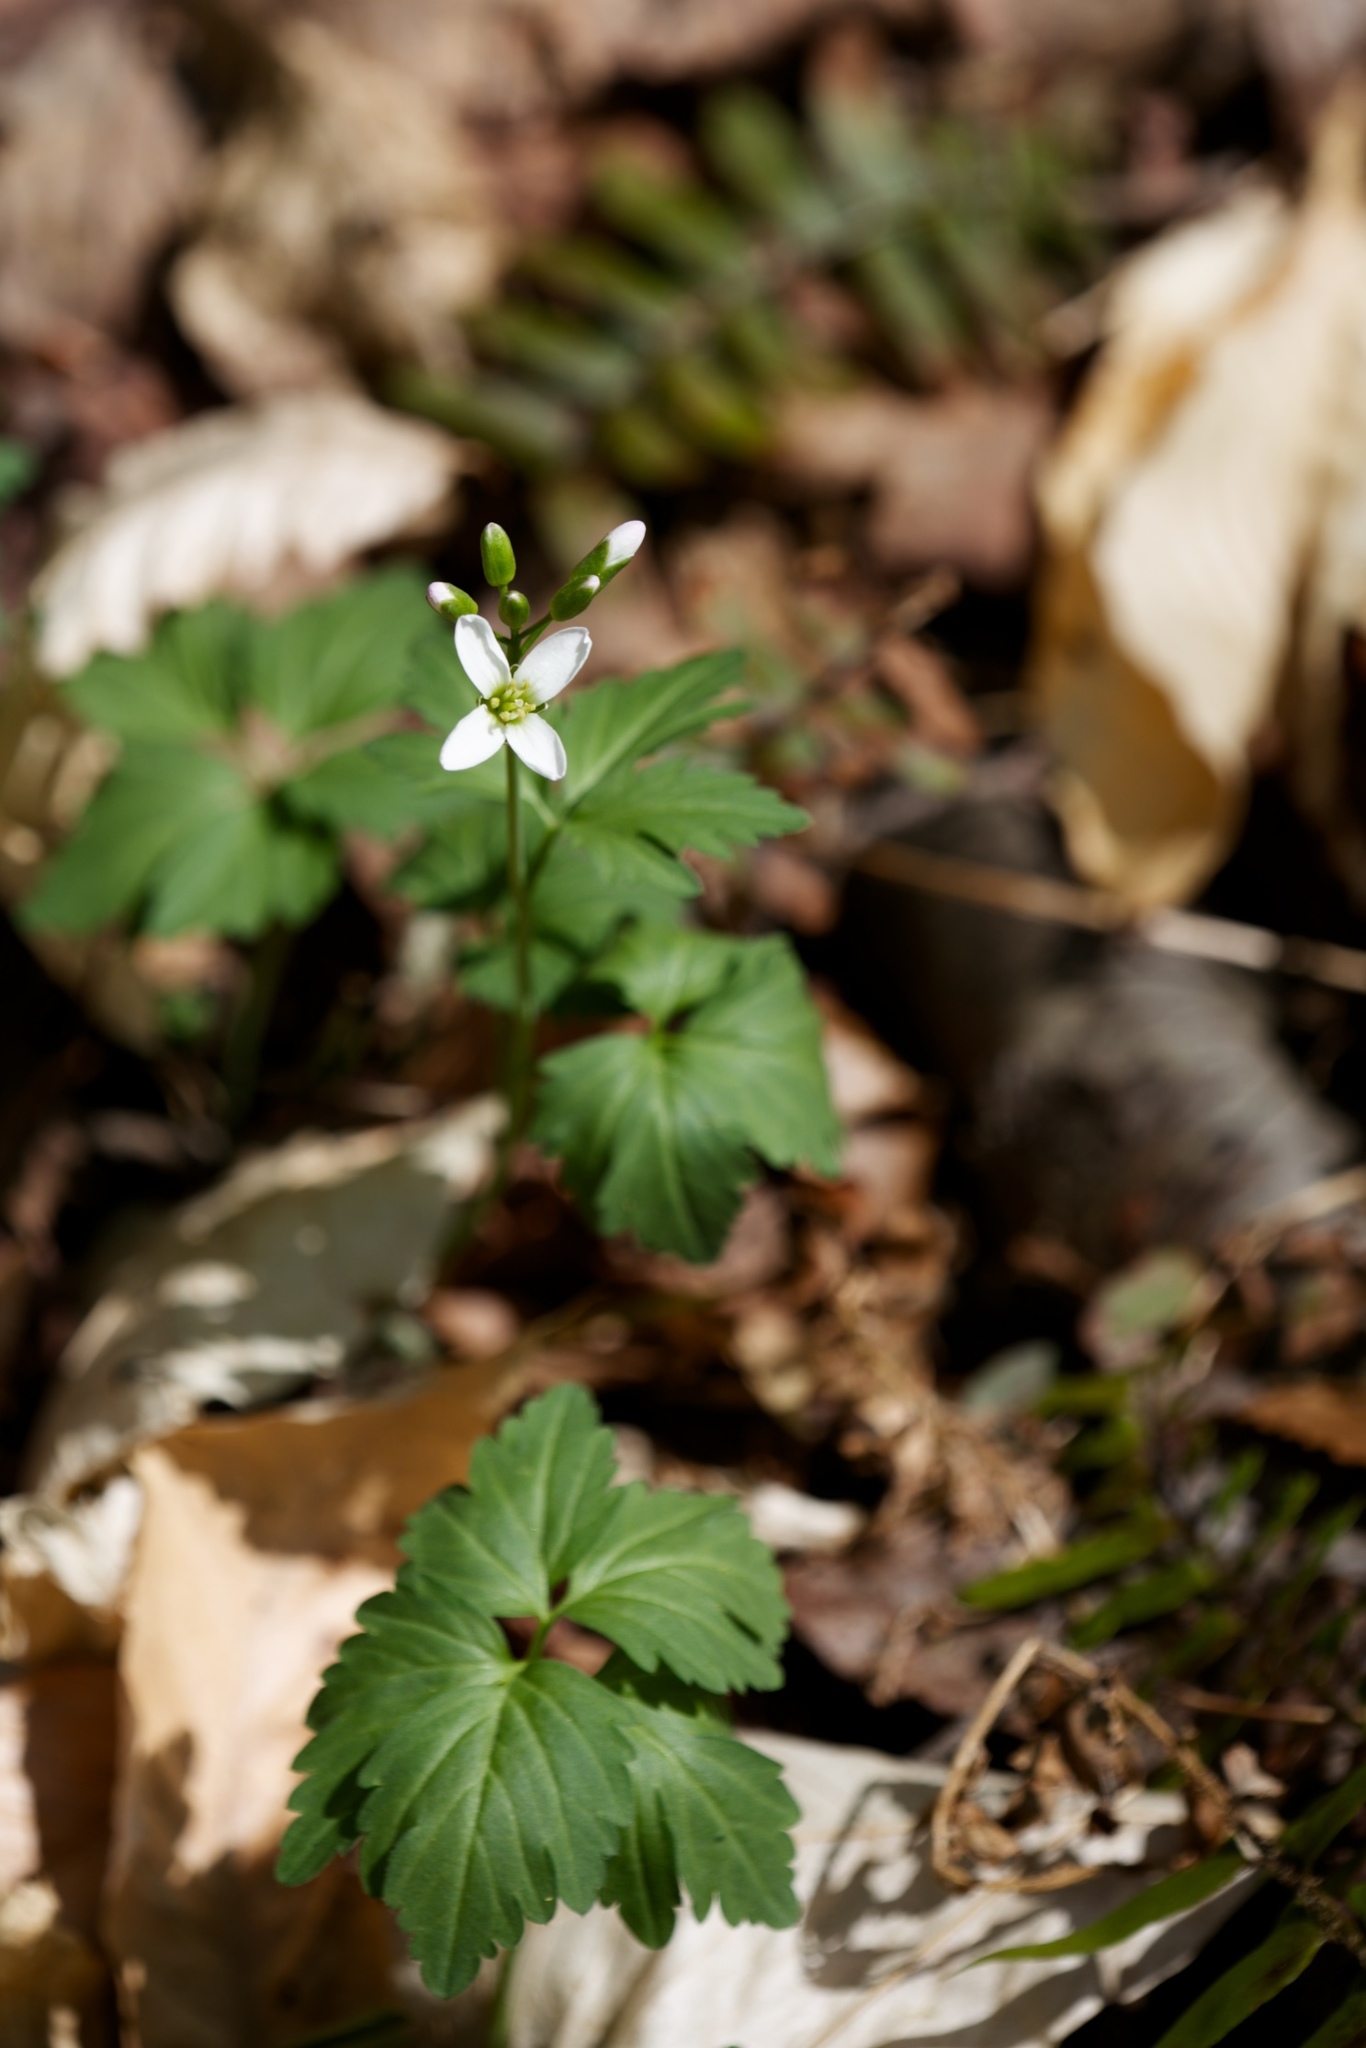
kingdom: Plantae
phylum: Tracheophyta
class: Magnoliopsida
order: Brassicales
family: Brassicaceae
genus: Cardamine
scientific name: Cardamine diphylla
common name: Broad-leaved toothwort
